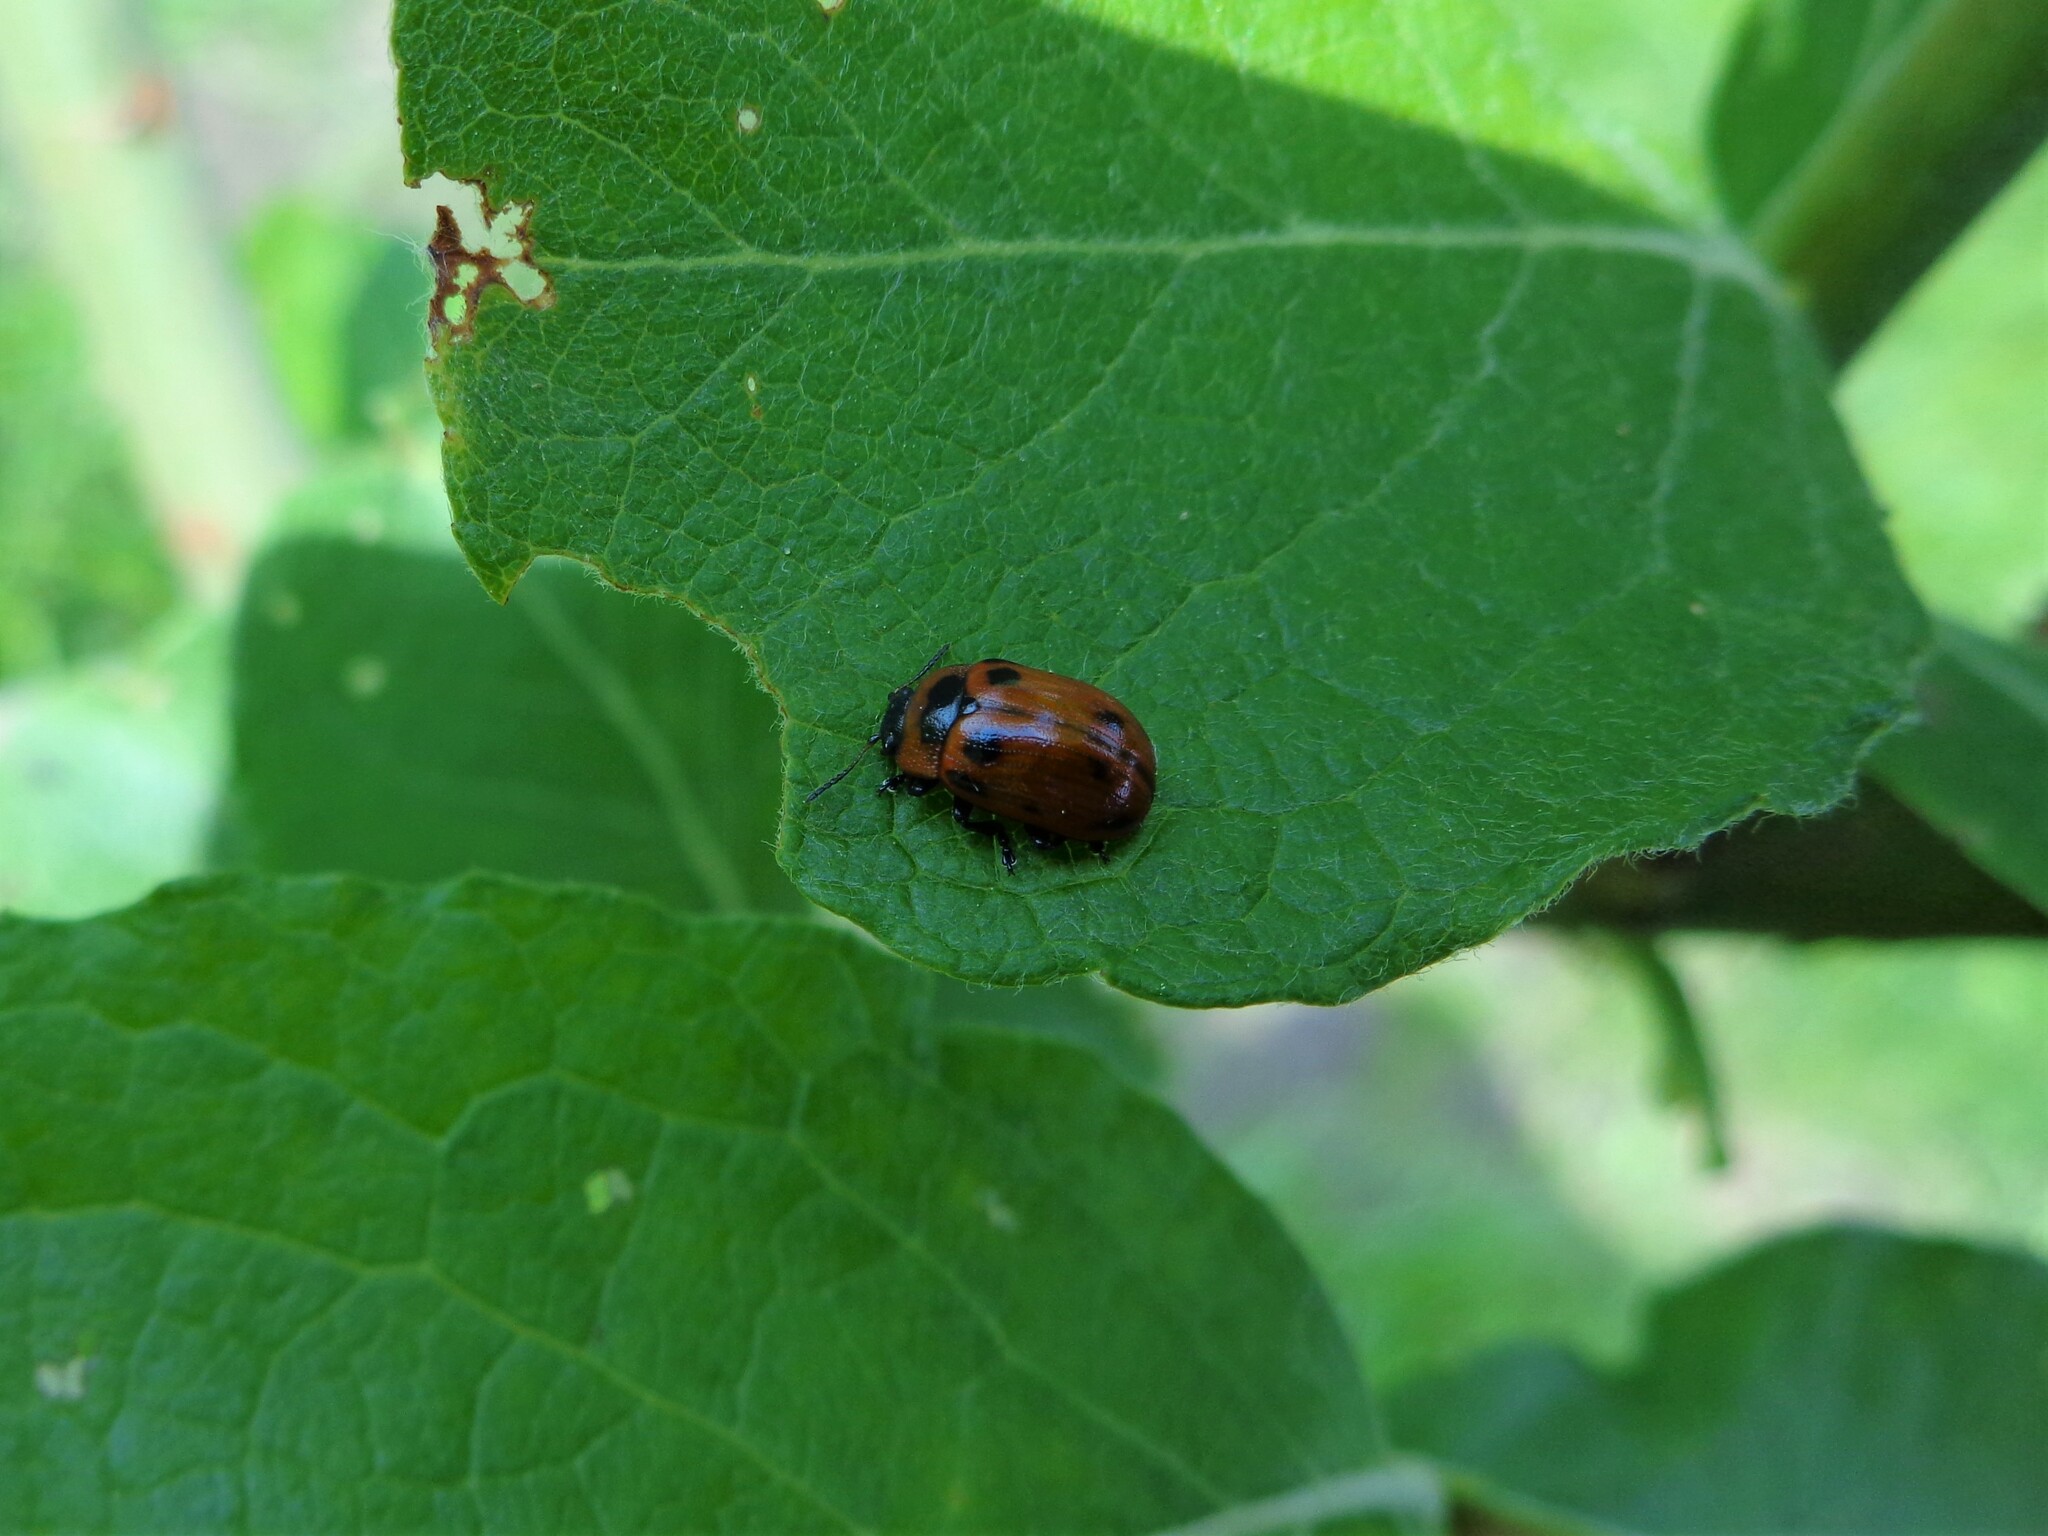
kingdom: Animalia
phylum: Arthropoda
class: Insecta
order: Coleoptera
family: Chrysomelidae
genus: Gonioctena
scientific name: Gonioctena viminalis
